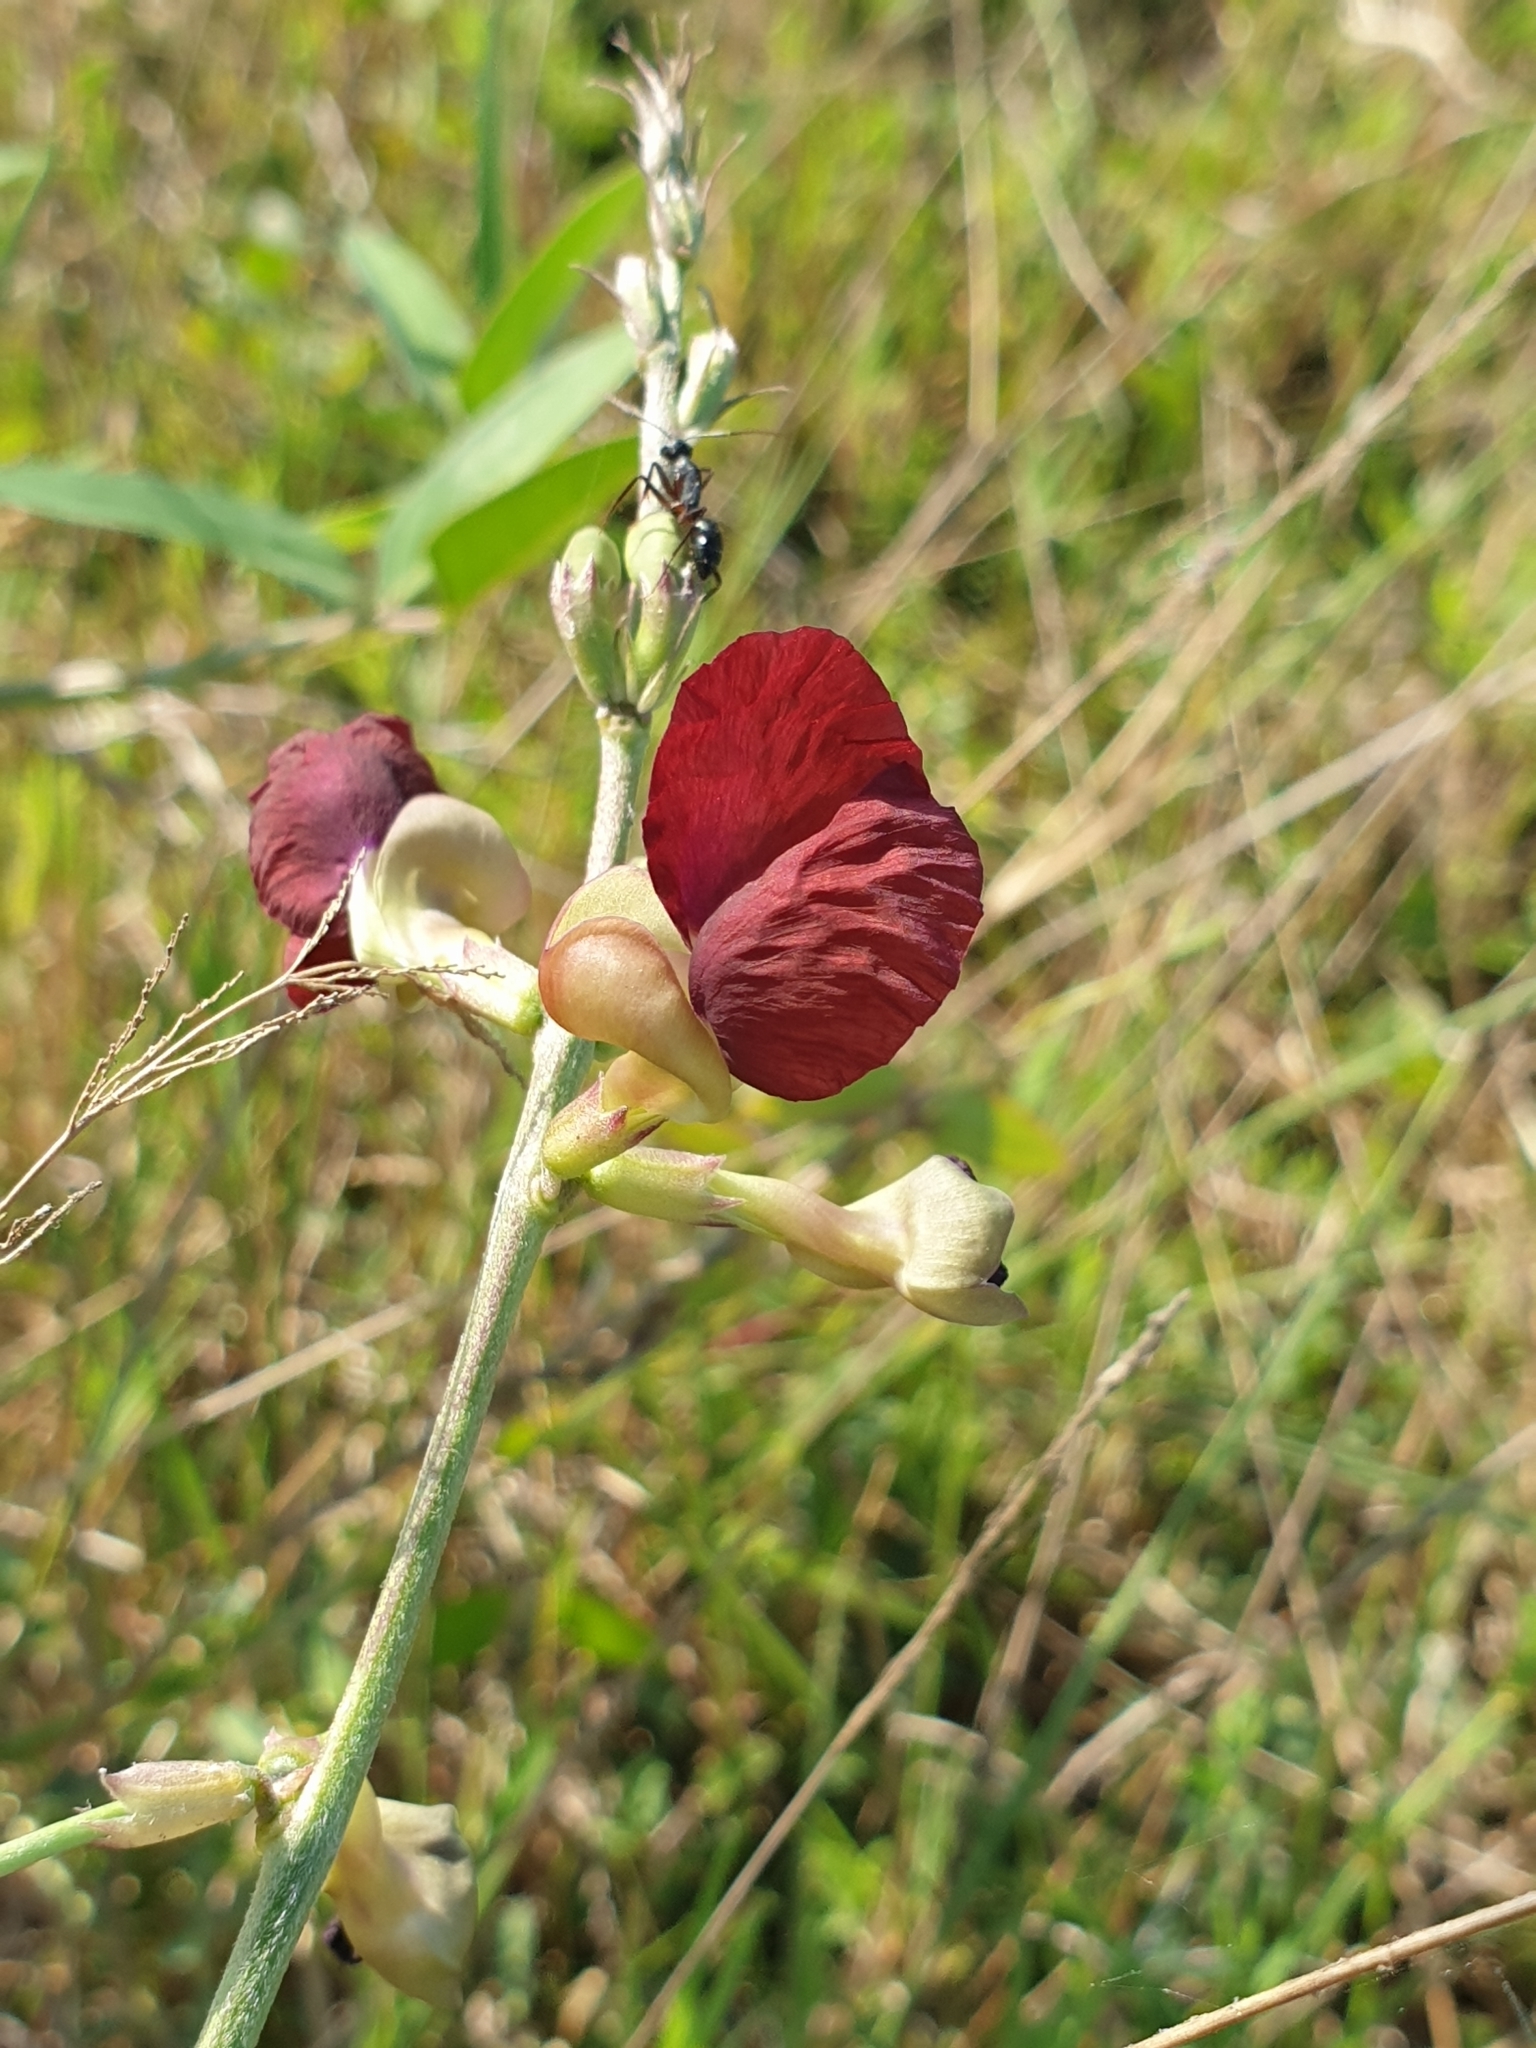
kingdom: Plantae
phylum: Tracheophyta
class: Magnoliopsida
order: Fabales
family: Fabaceae
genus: Macroptilium
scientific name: Macroptilium lathyroides
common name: Wild bushbean
